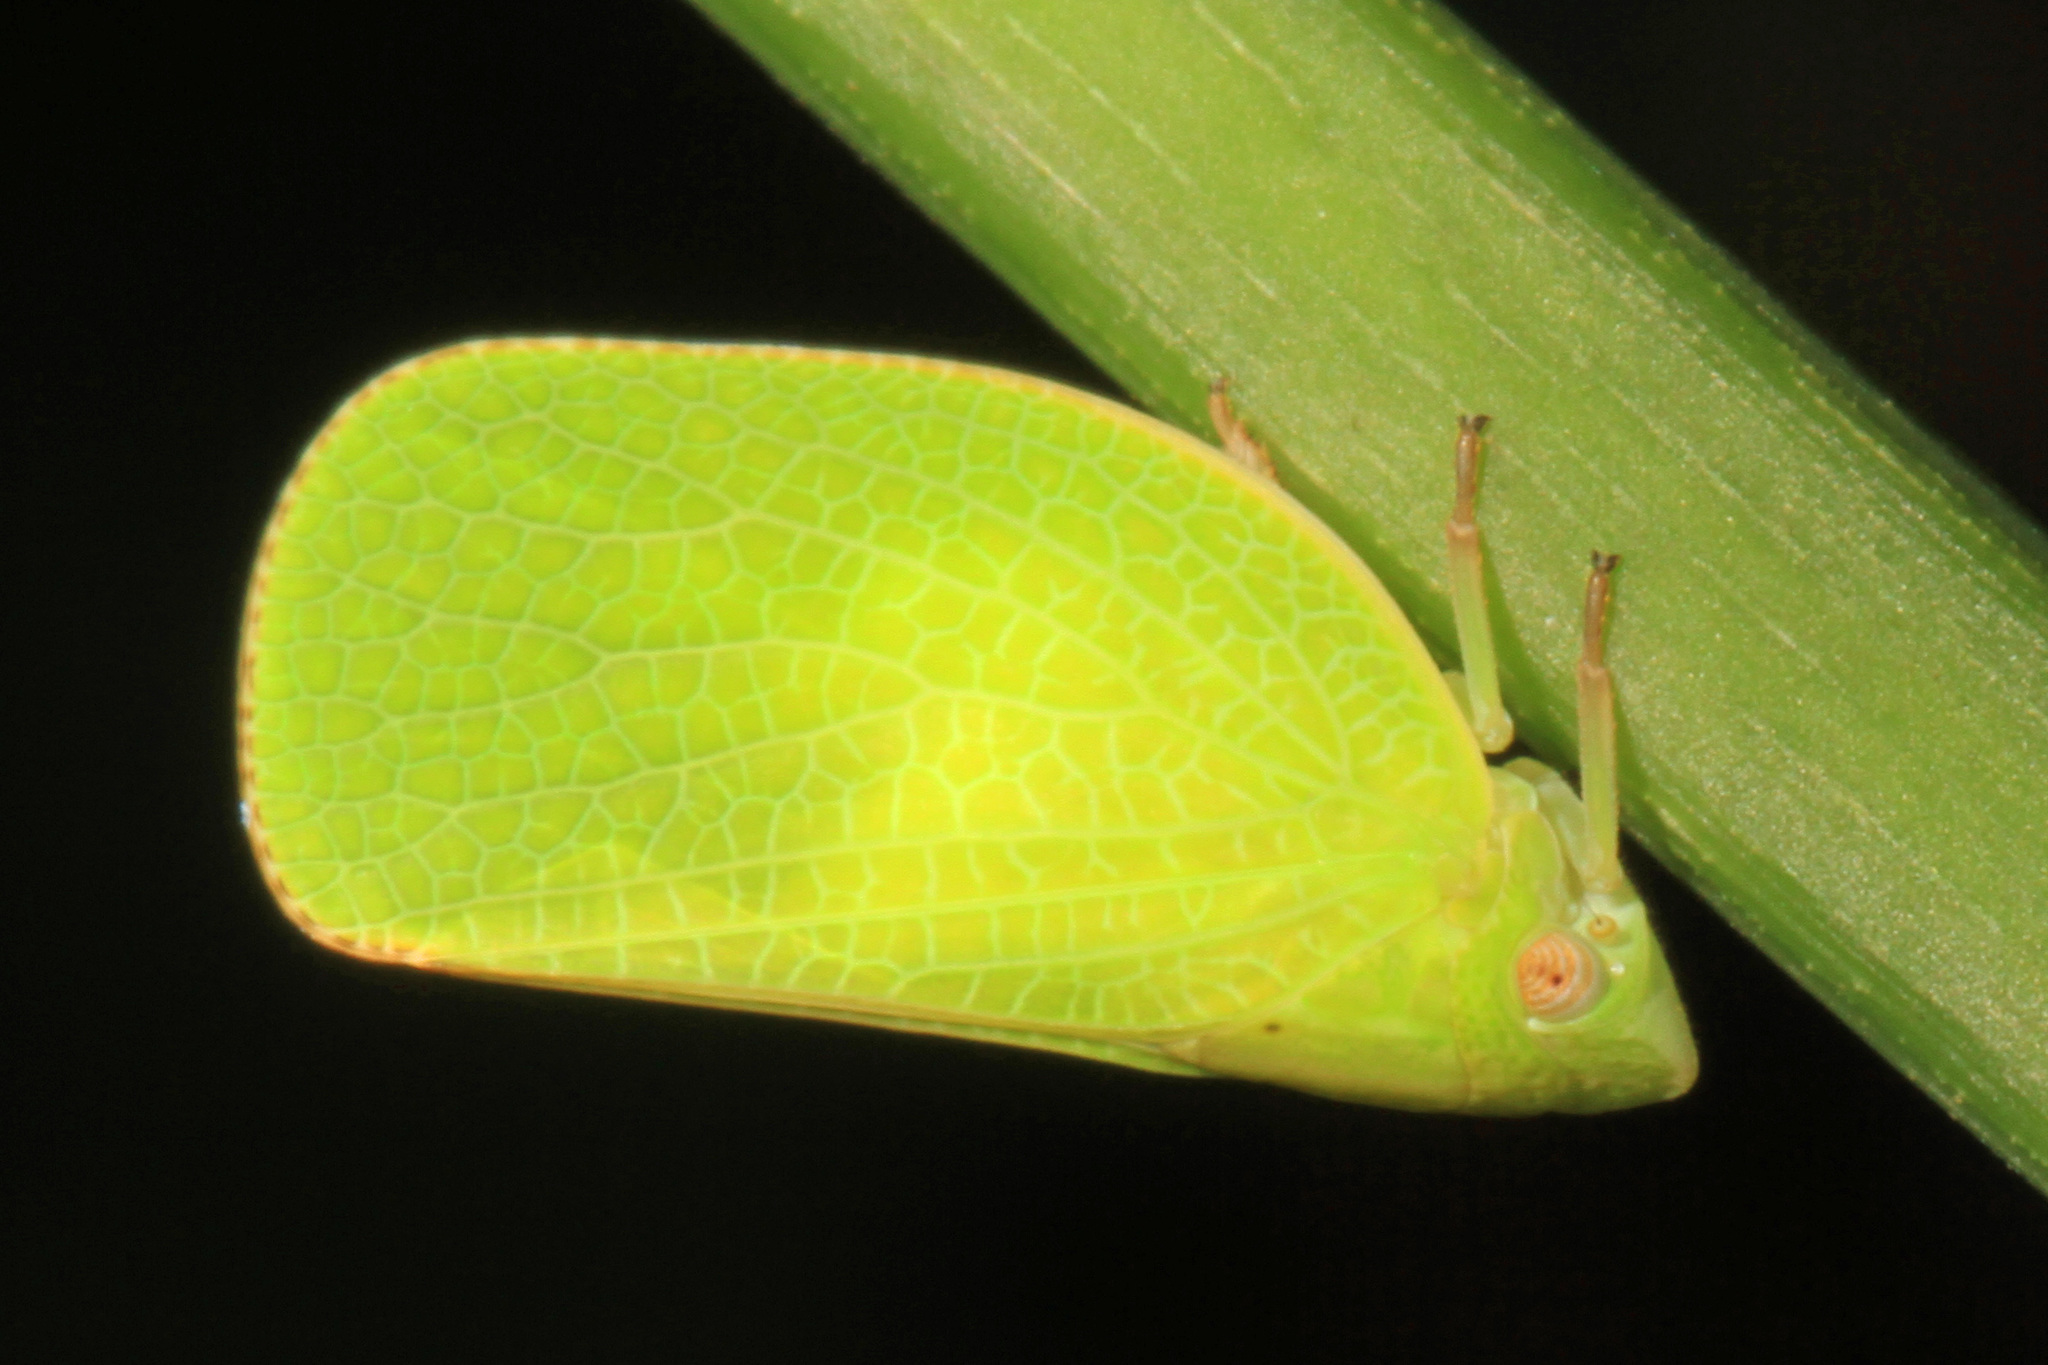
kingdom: Animalia
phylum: Arthropoda
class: Insecta
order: Hemiptera
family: Acanaloniidae
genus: Acanalonia
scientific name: Acanalonia conica
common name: Green cone-headed planthopper
